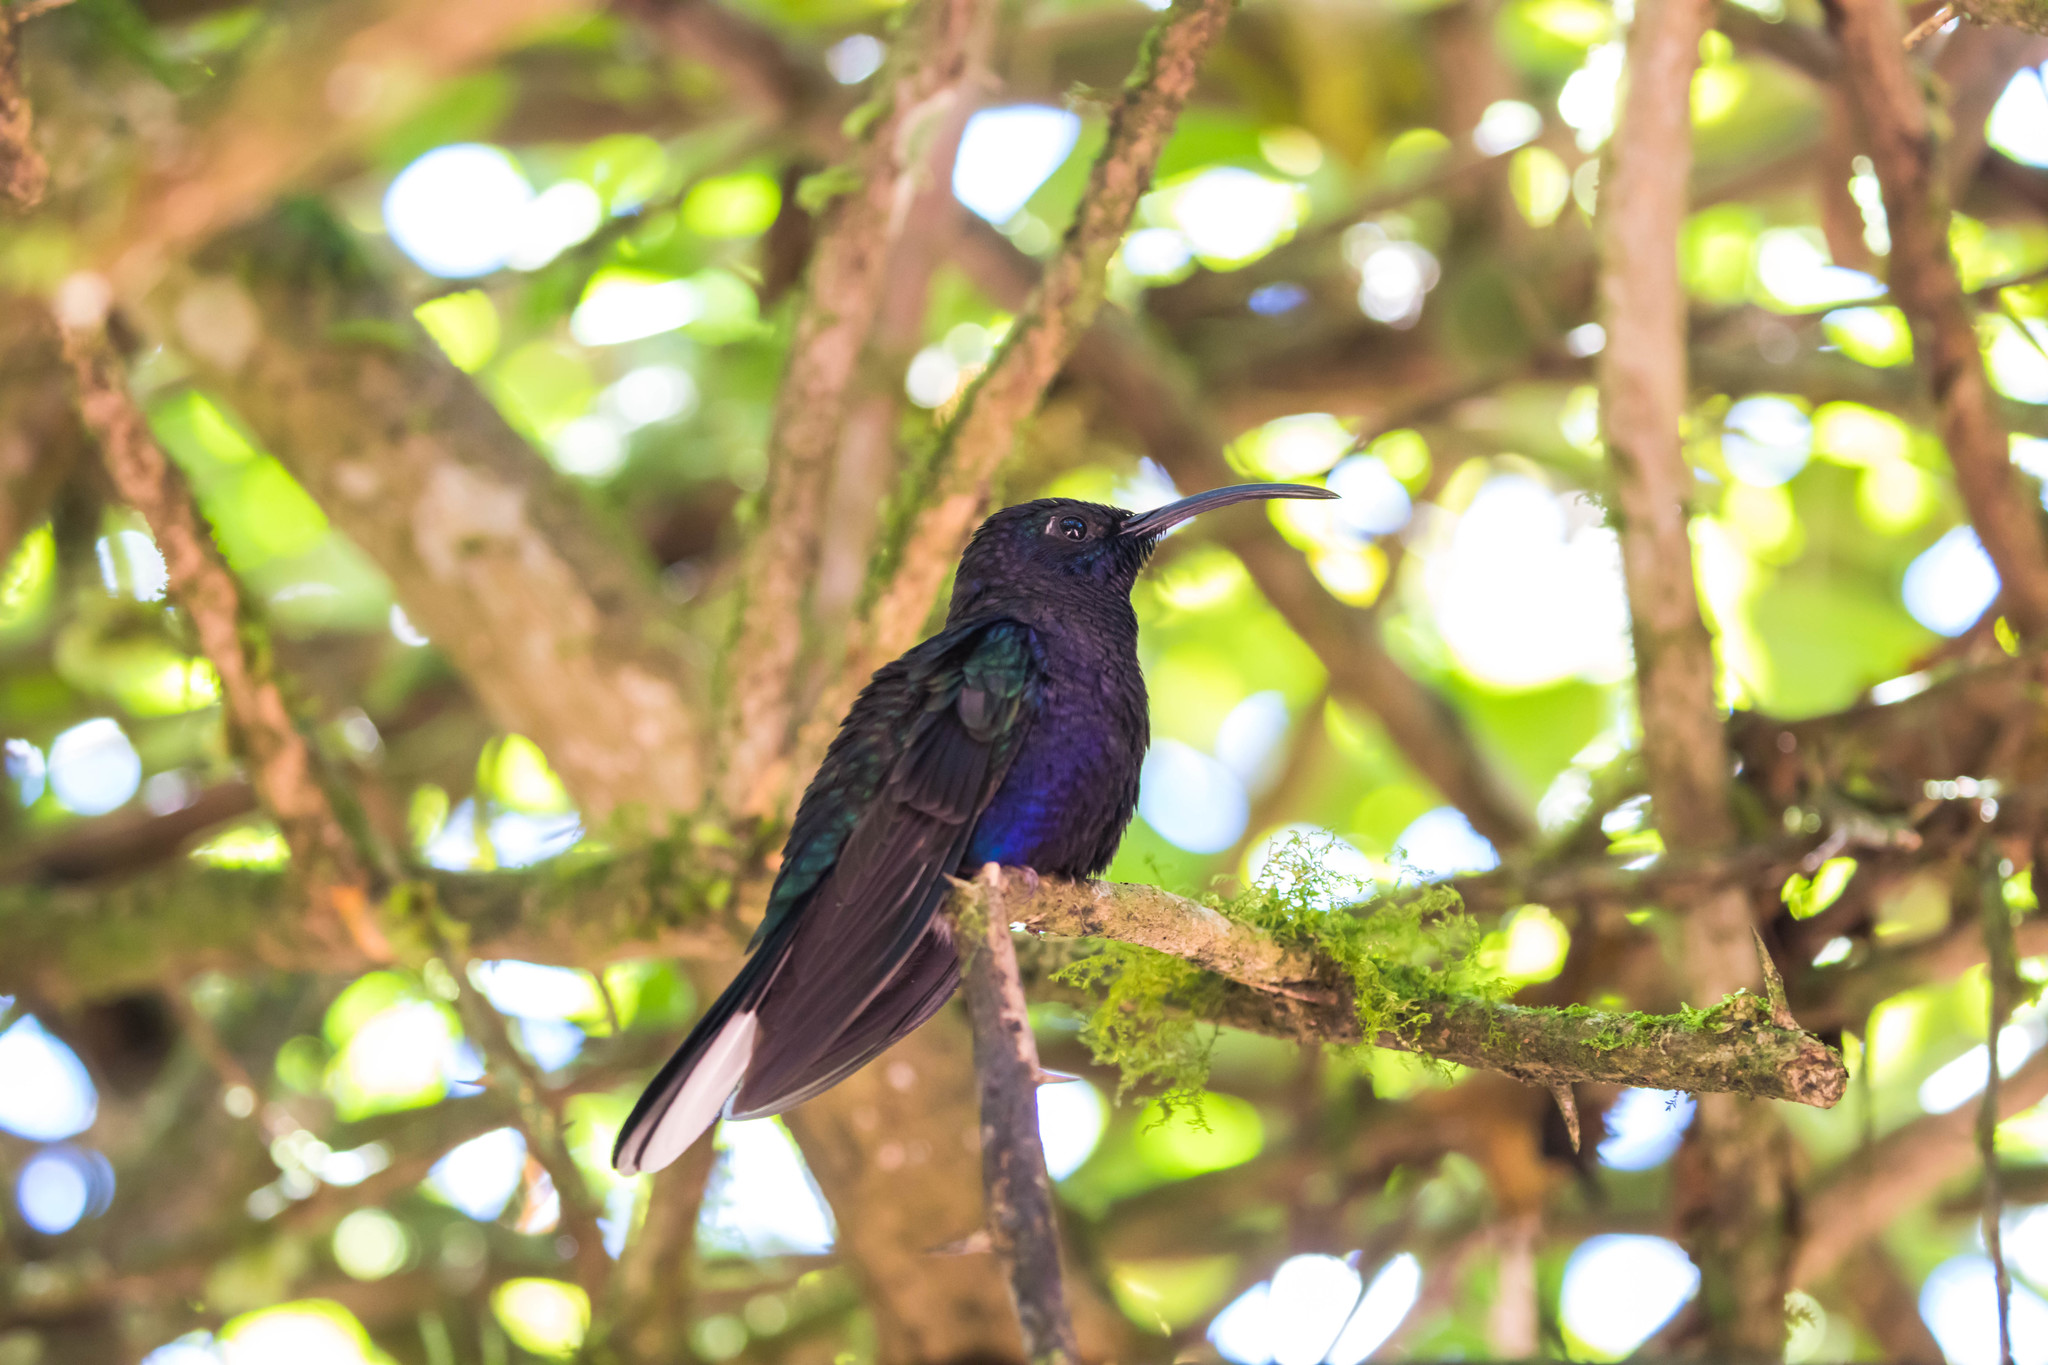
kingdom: Animalia
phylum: Chordata
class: Aves
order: Apodiformes
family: Trochilidae
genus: Campylopterus
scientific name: Campylopterus hemileucurus
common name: Violet sabrewing
